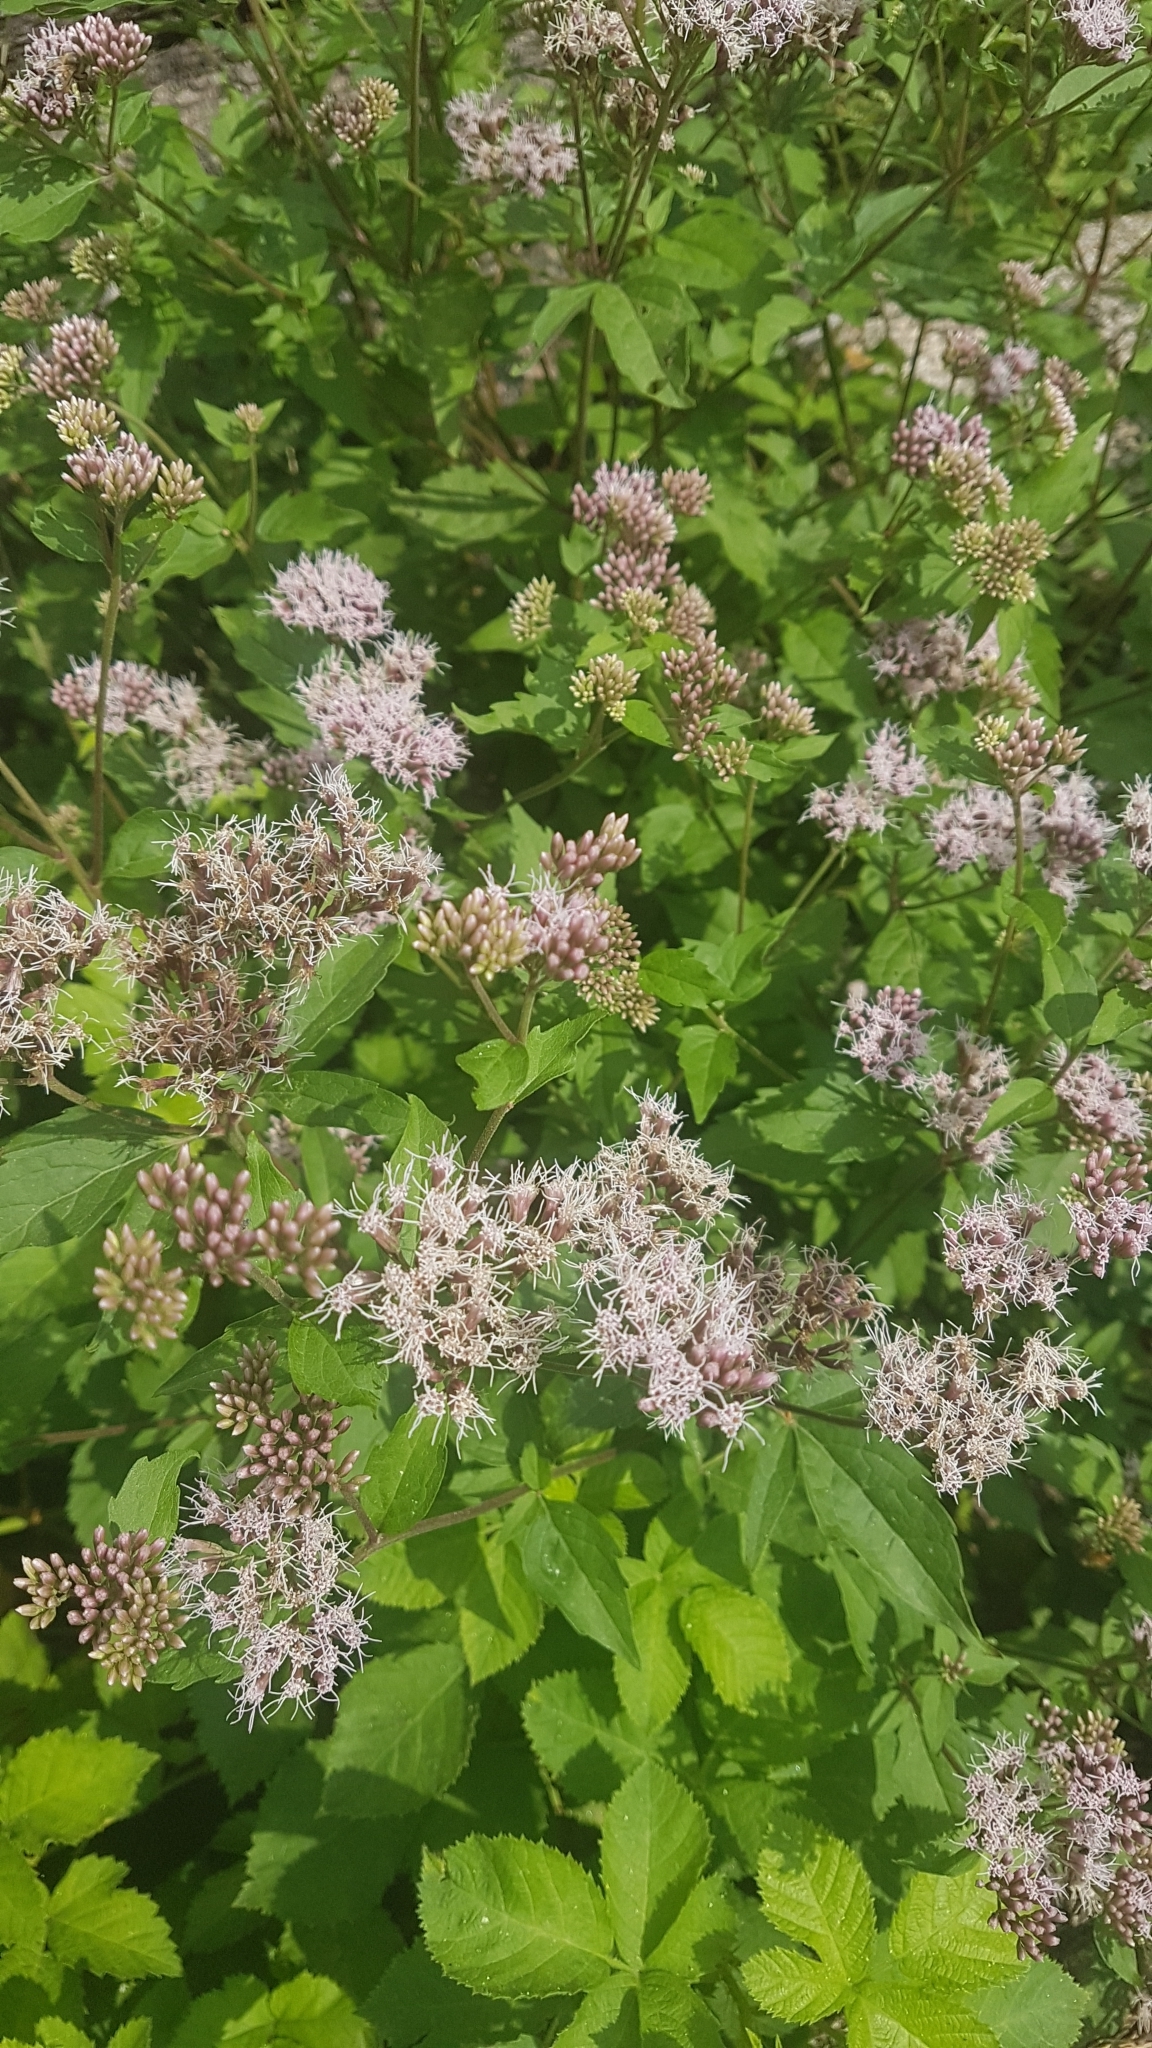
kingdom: Plantae
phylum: Tracheophyta
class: Magnoliopsida
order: Asterales
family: Asteraceae
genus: Eupatorium
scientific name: Eupatorium cannabinum
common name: Hemp-agrimony
